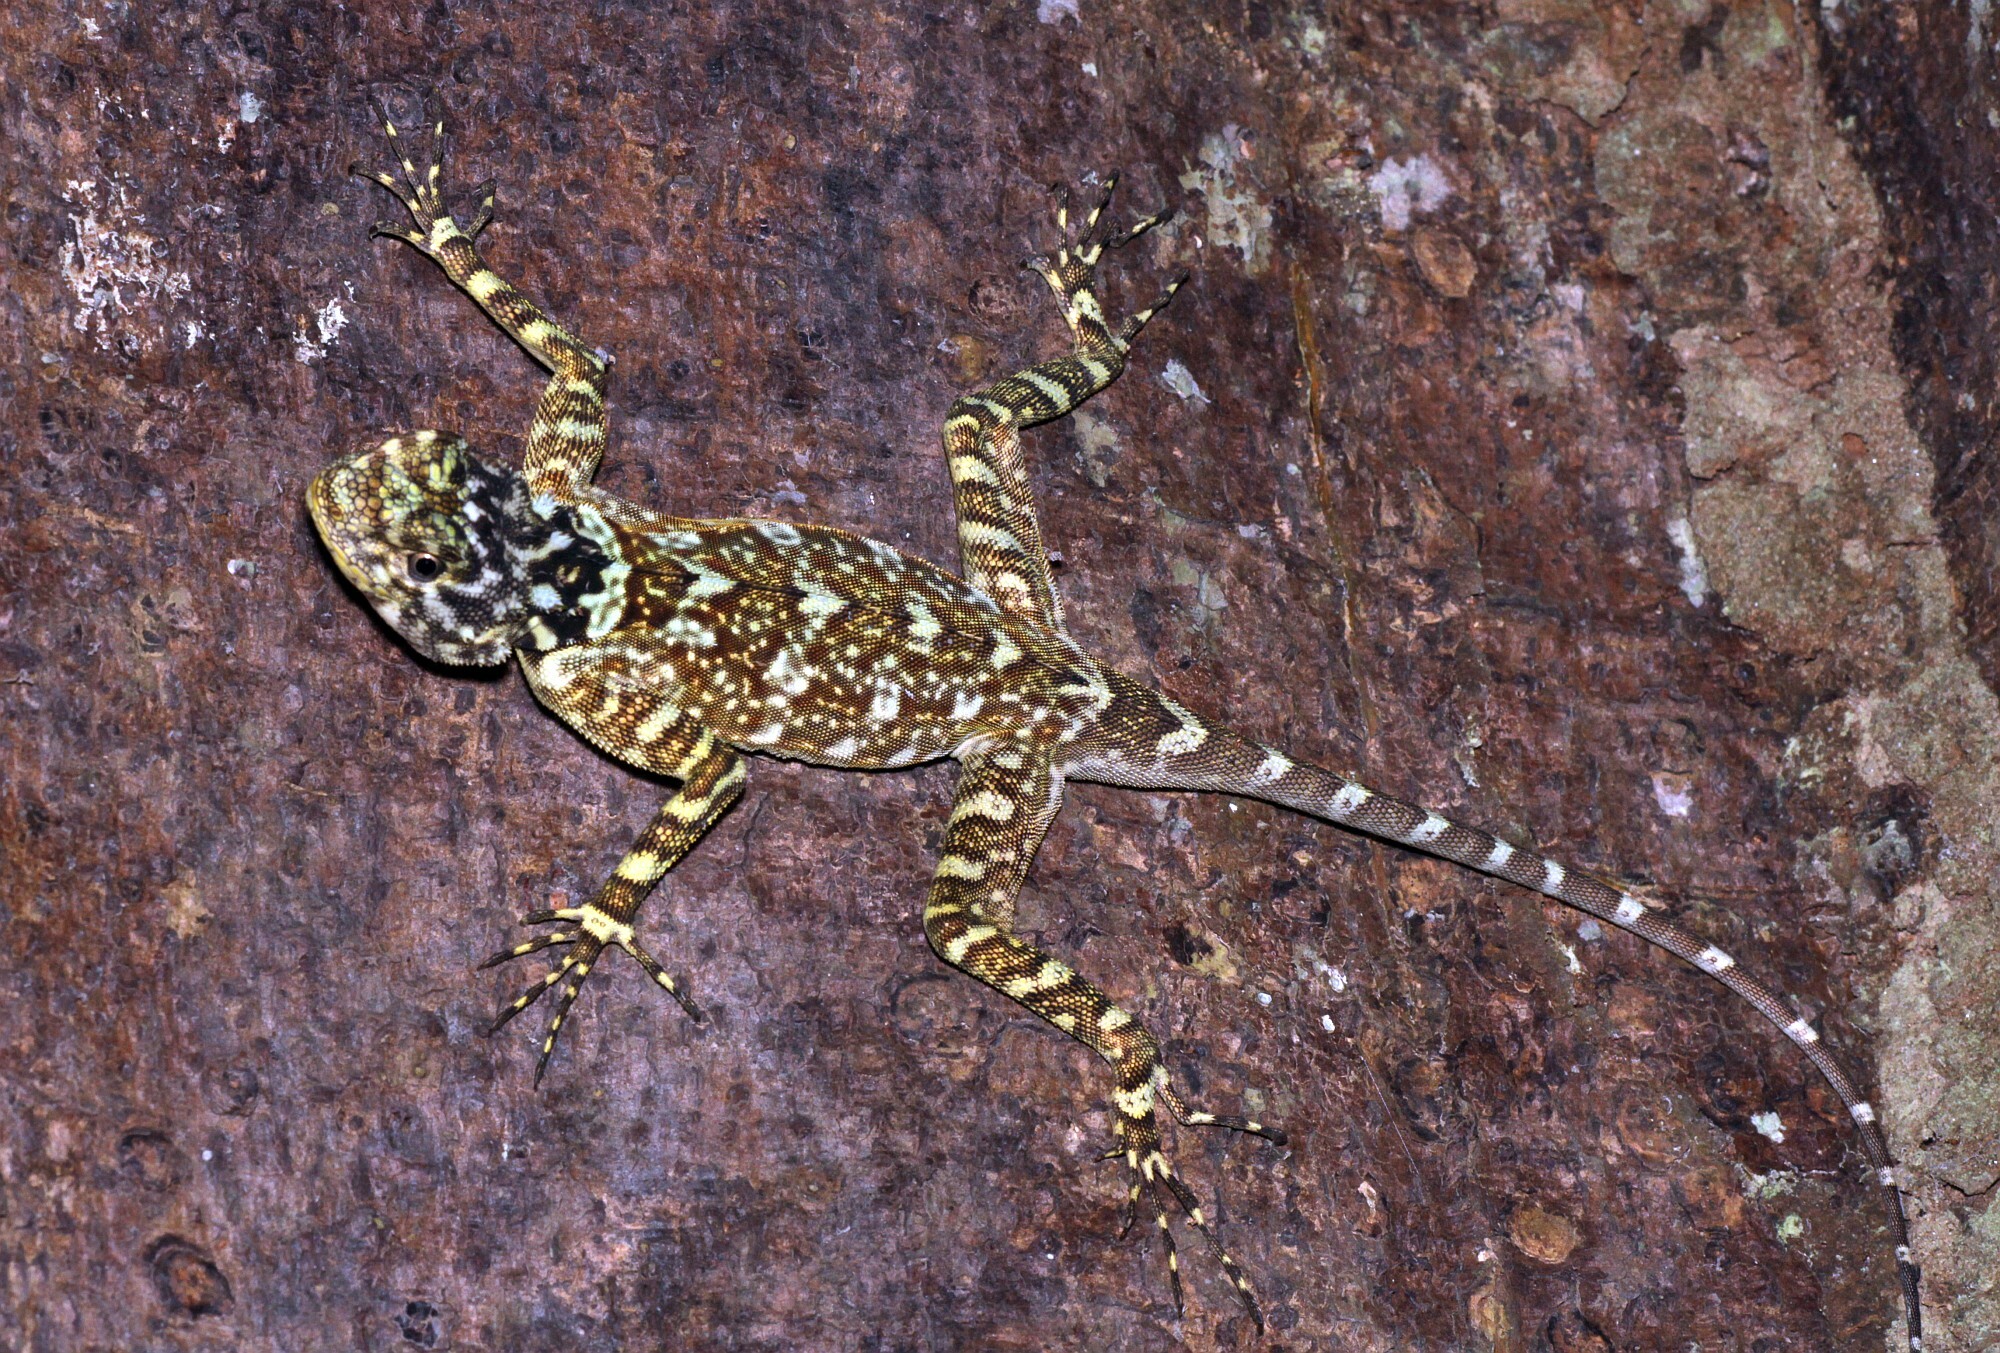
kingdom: Animalia
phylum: Chordata
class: Squamata
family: Tropiduridae
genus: Plica
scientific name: Plica plica
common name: Tree runner
